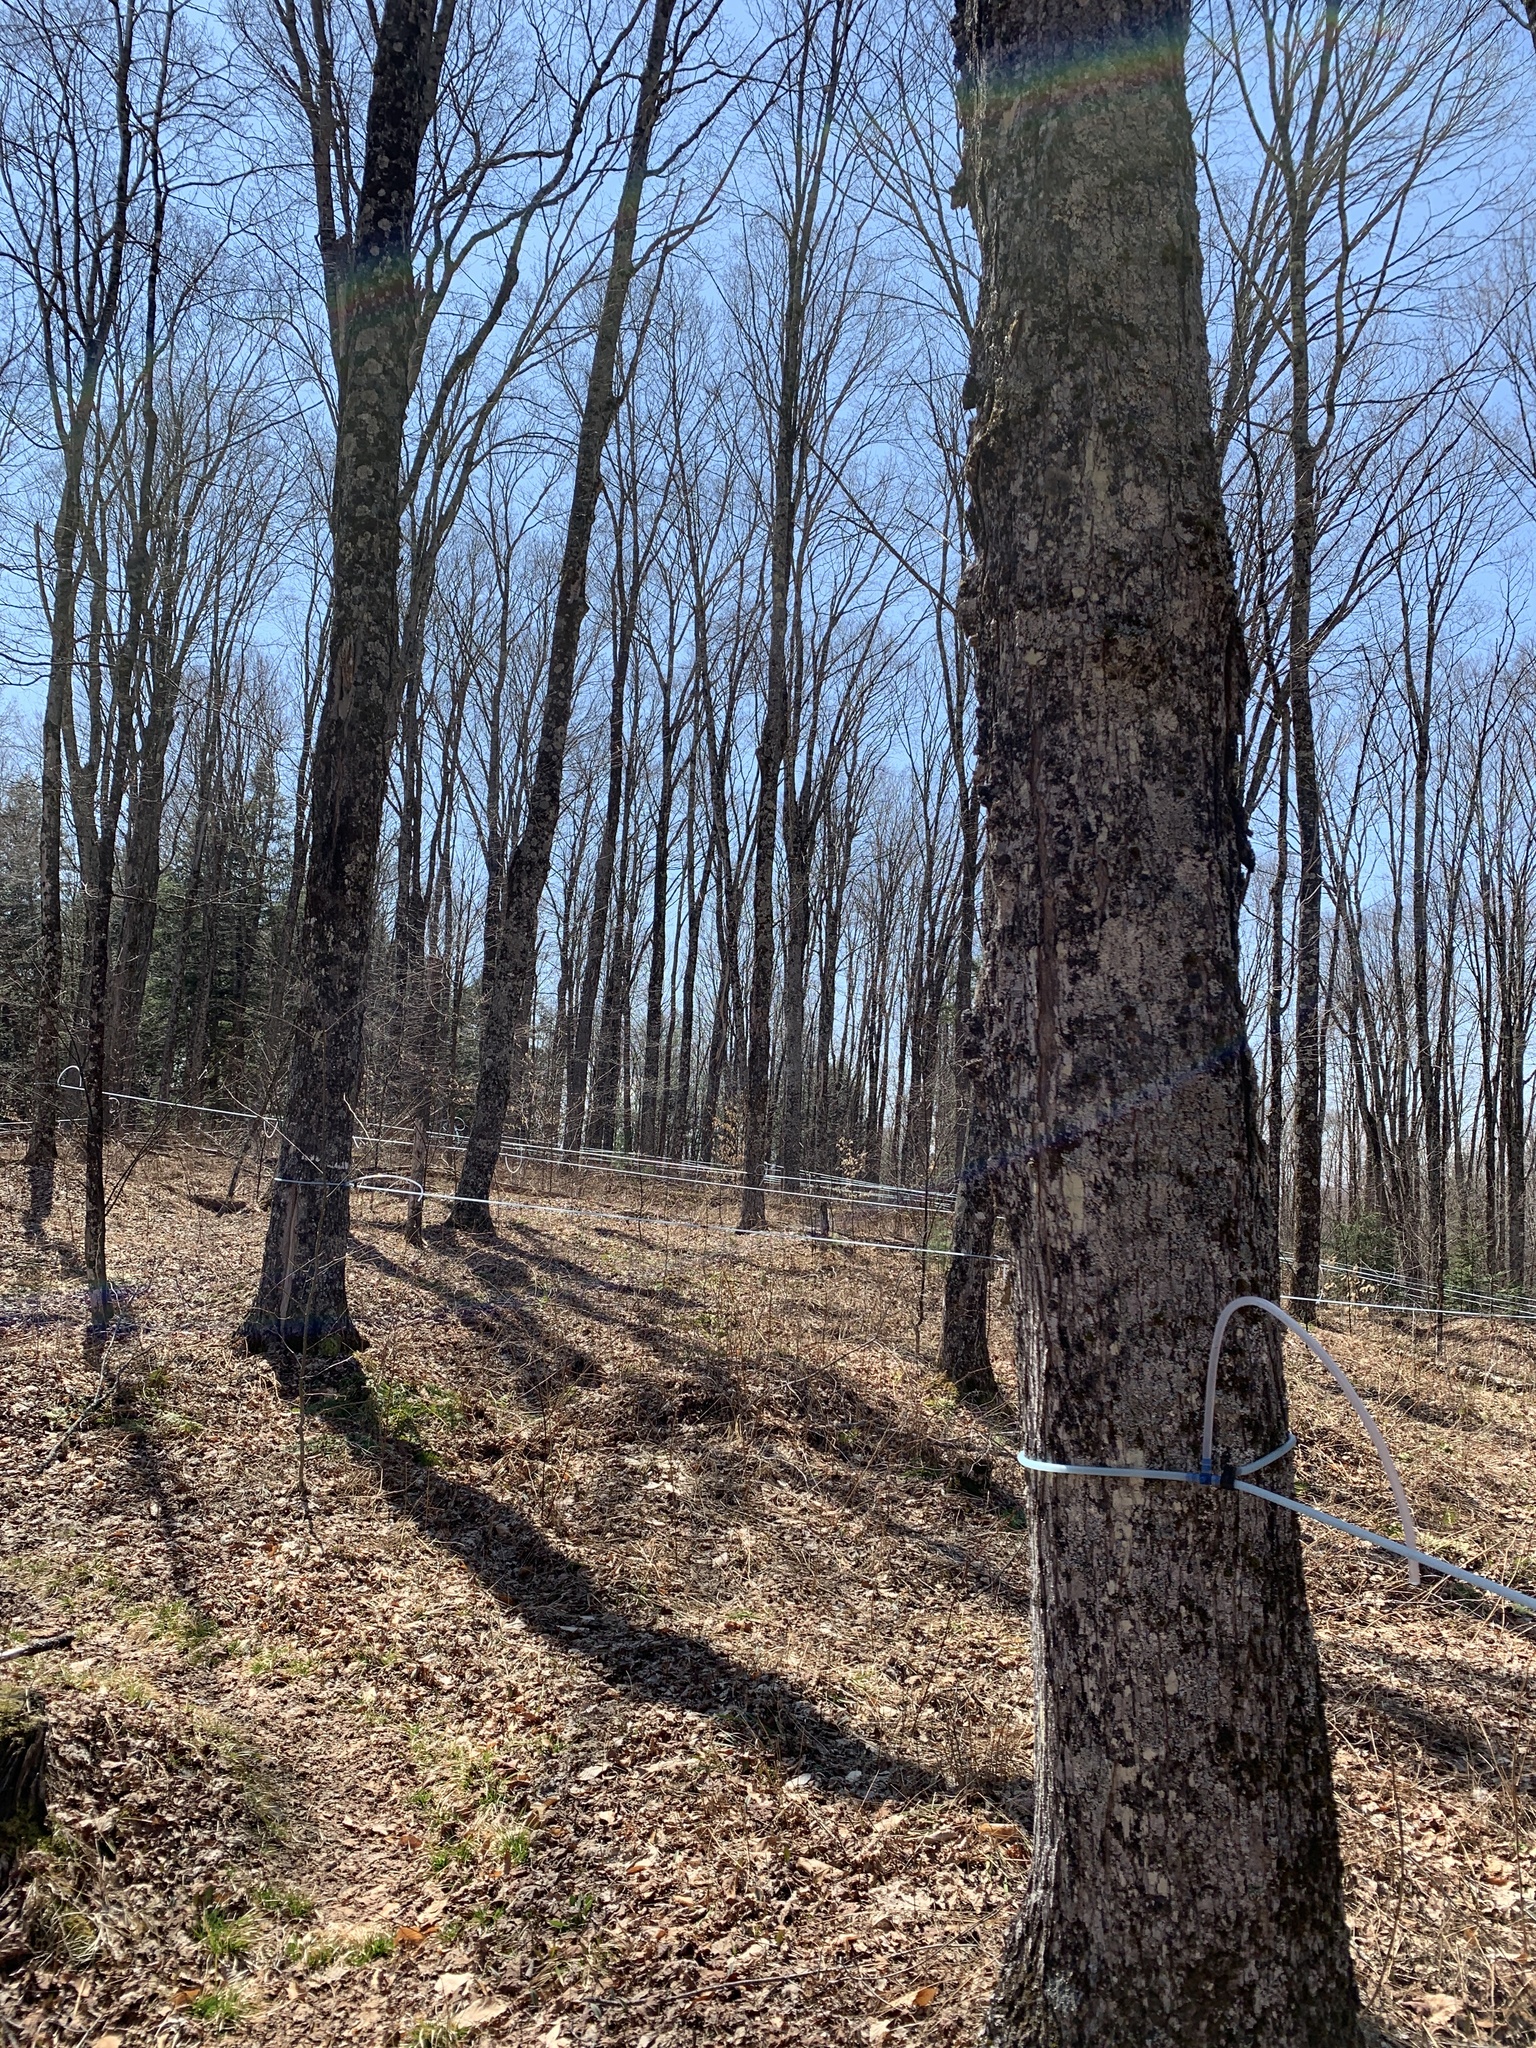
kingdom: Plantae
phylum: Tracheophyta
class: Magnoliopsida
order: Sapindales
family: Sapindaceae
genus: Acer
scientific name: Acer saccharum
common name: Sugar maple
